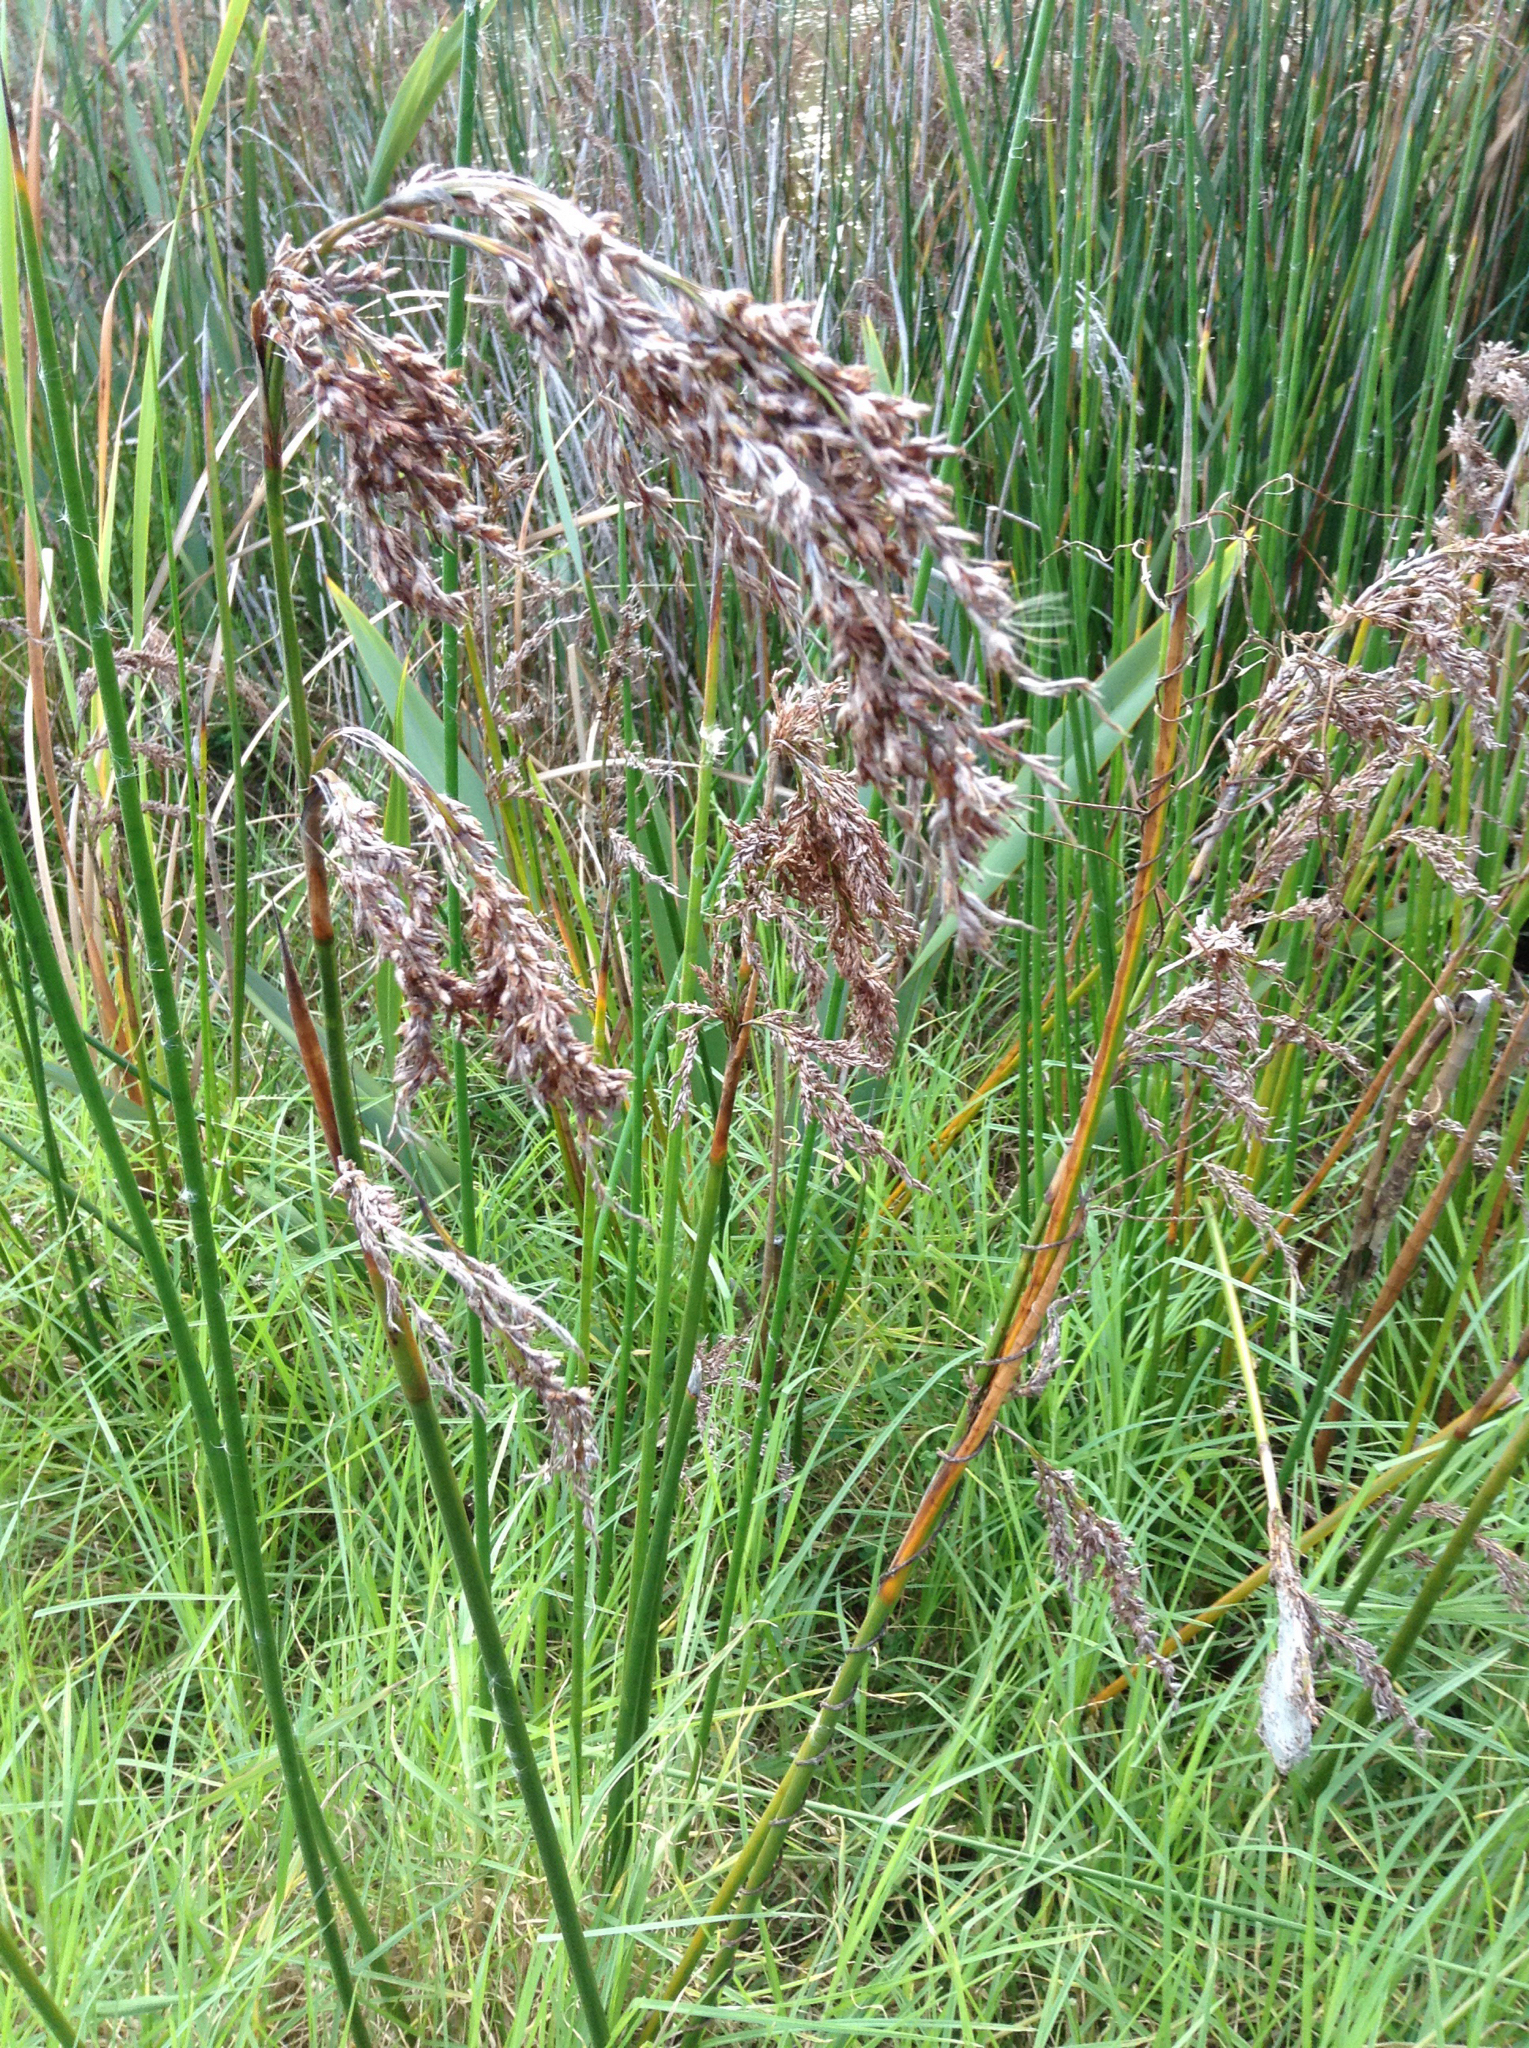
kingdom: Plantae
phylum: Tracheophyta
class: Liliopsida
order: Poales
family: Cyperaceae
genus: Machaerina
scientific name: Machaerina articulata
